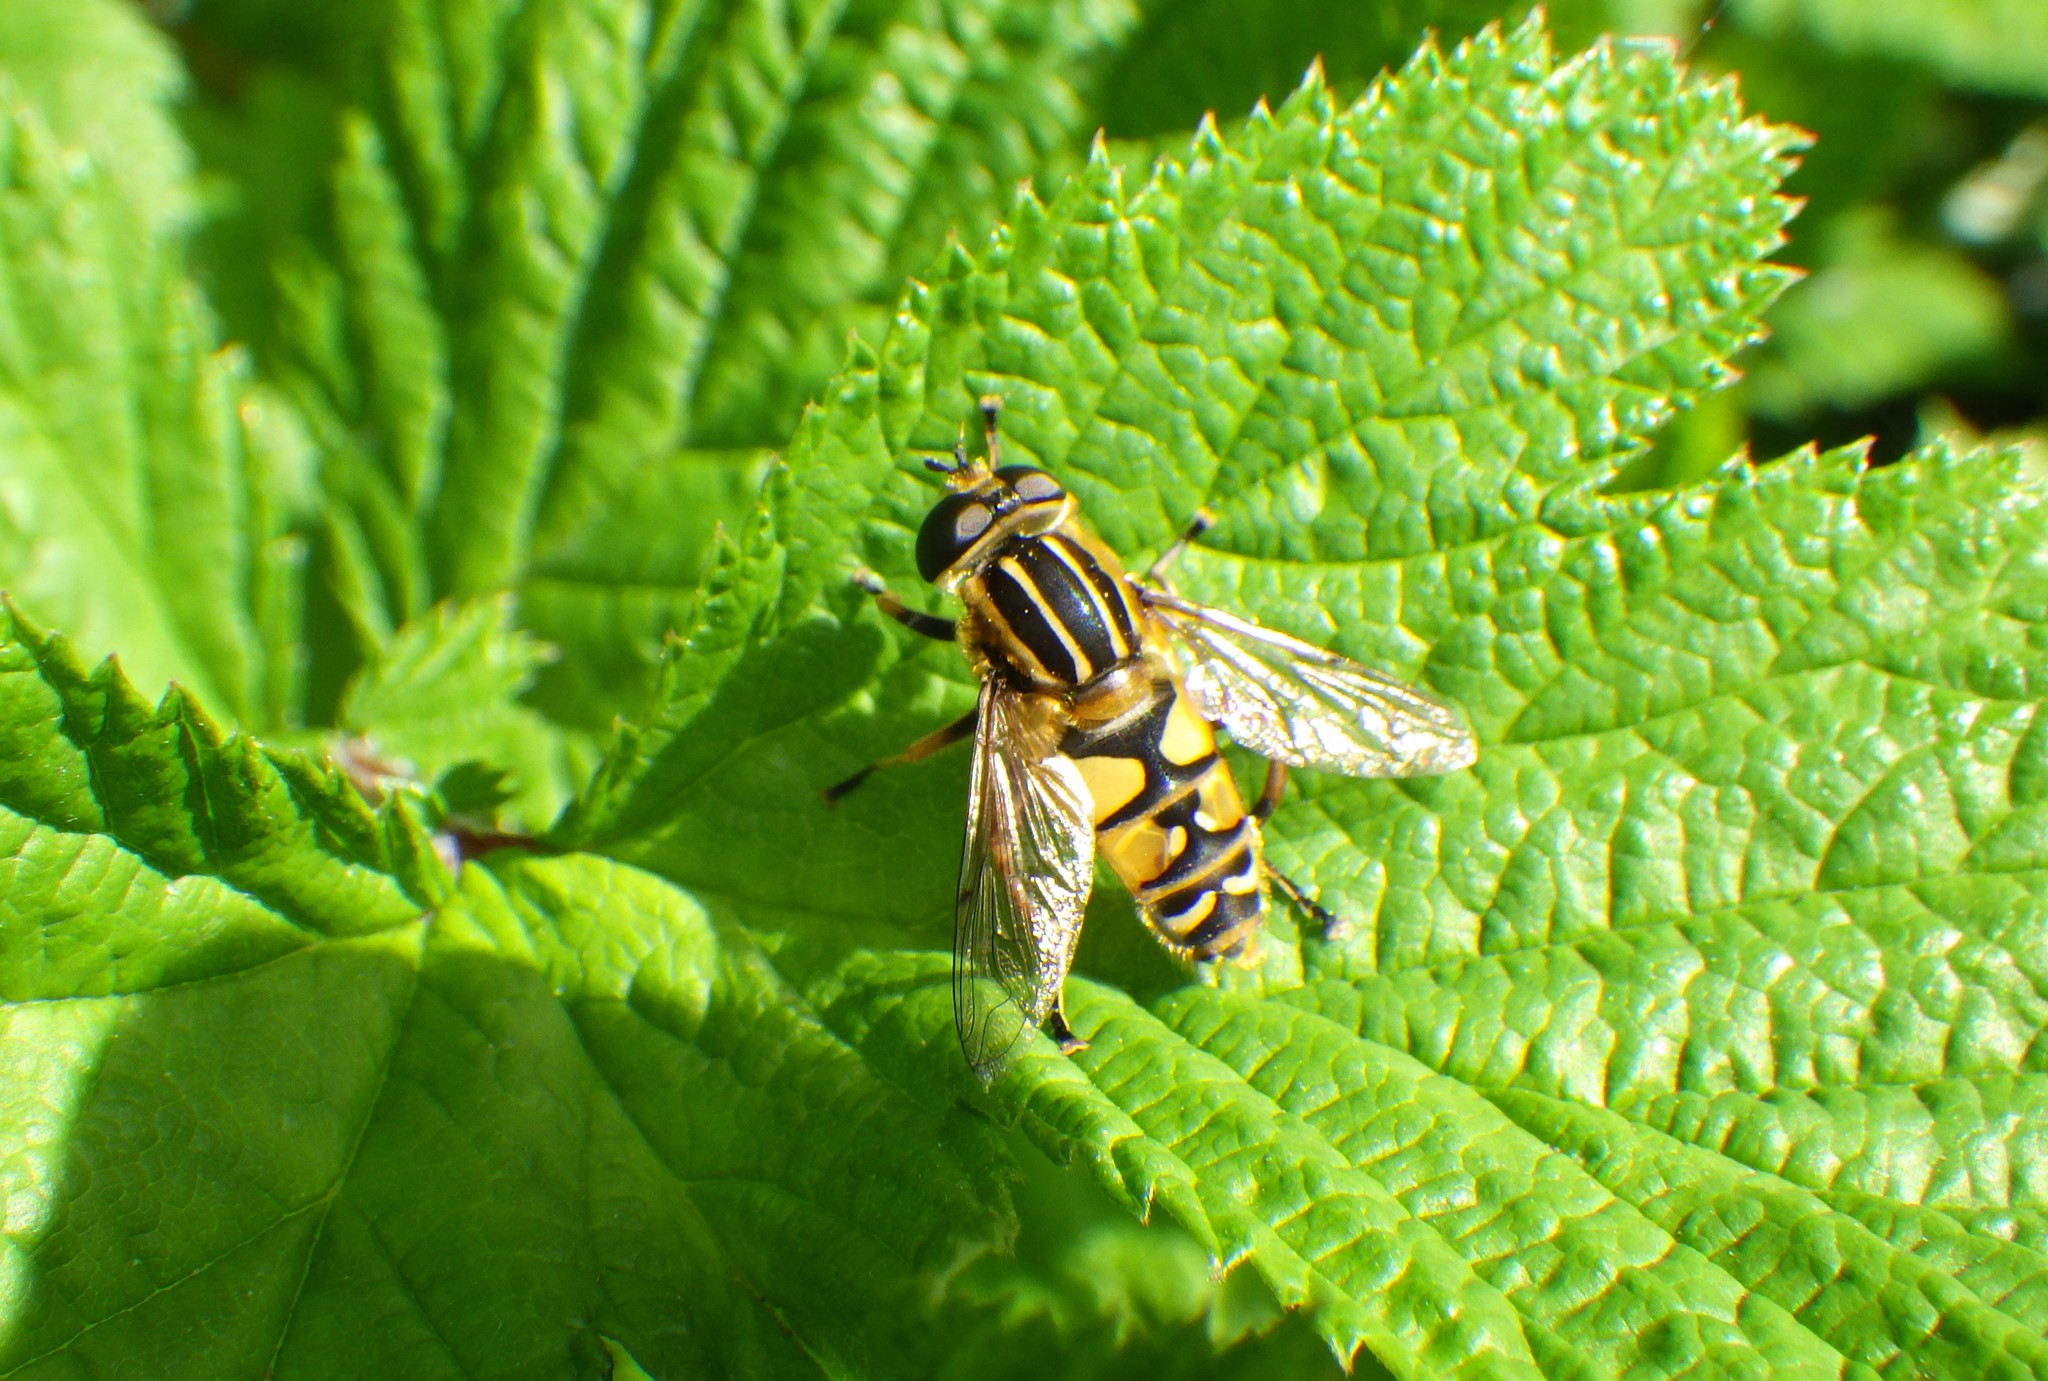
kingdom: Animalia
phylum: Arthropoda
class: Insecta
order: Diptera
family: Syrphidae
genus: Helophilus
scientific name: Helophilus pendulus
